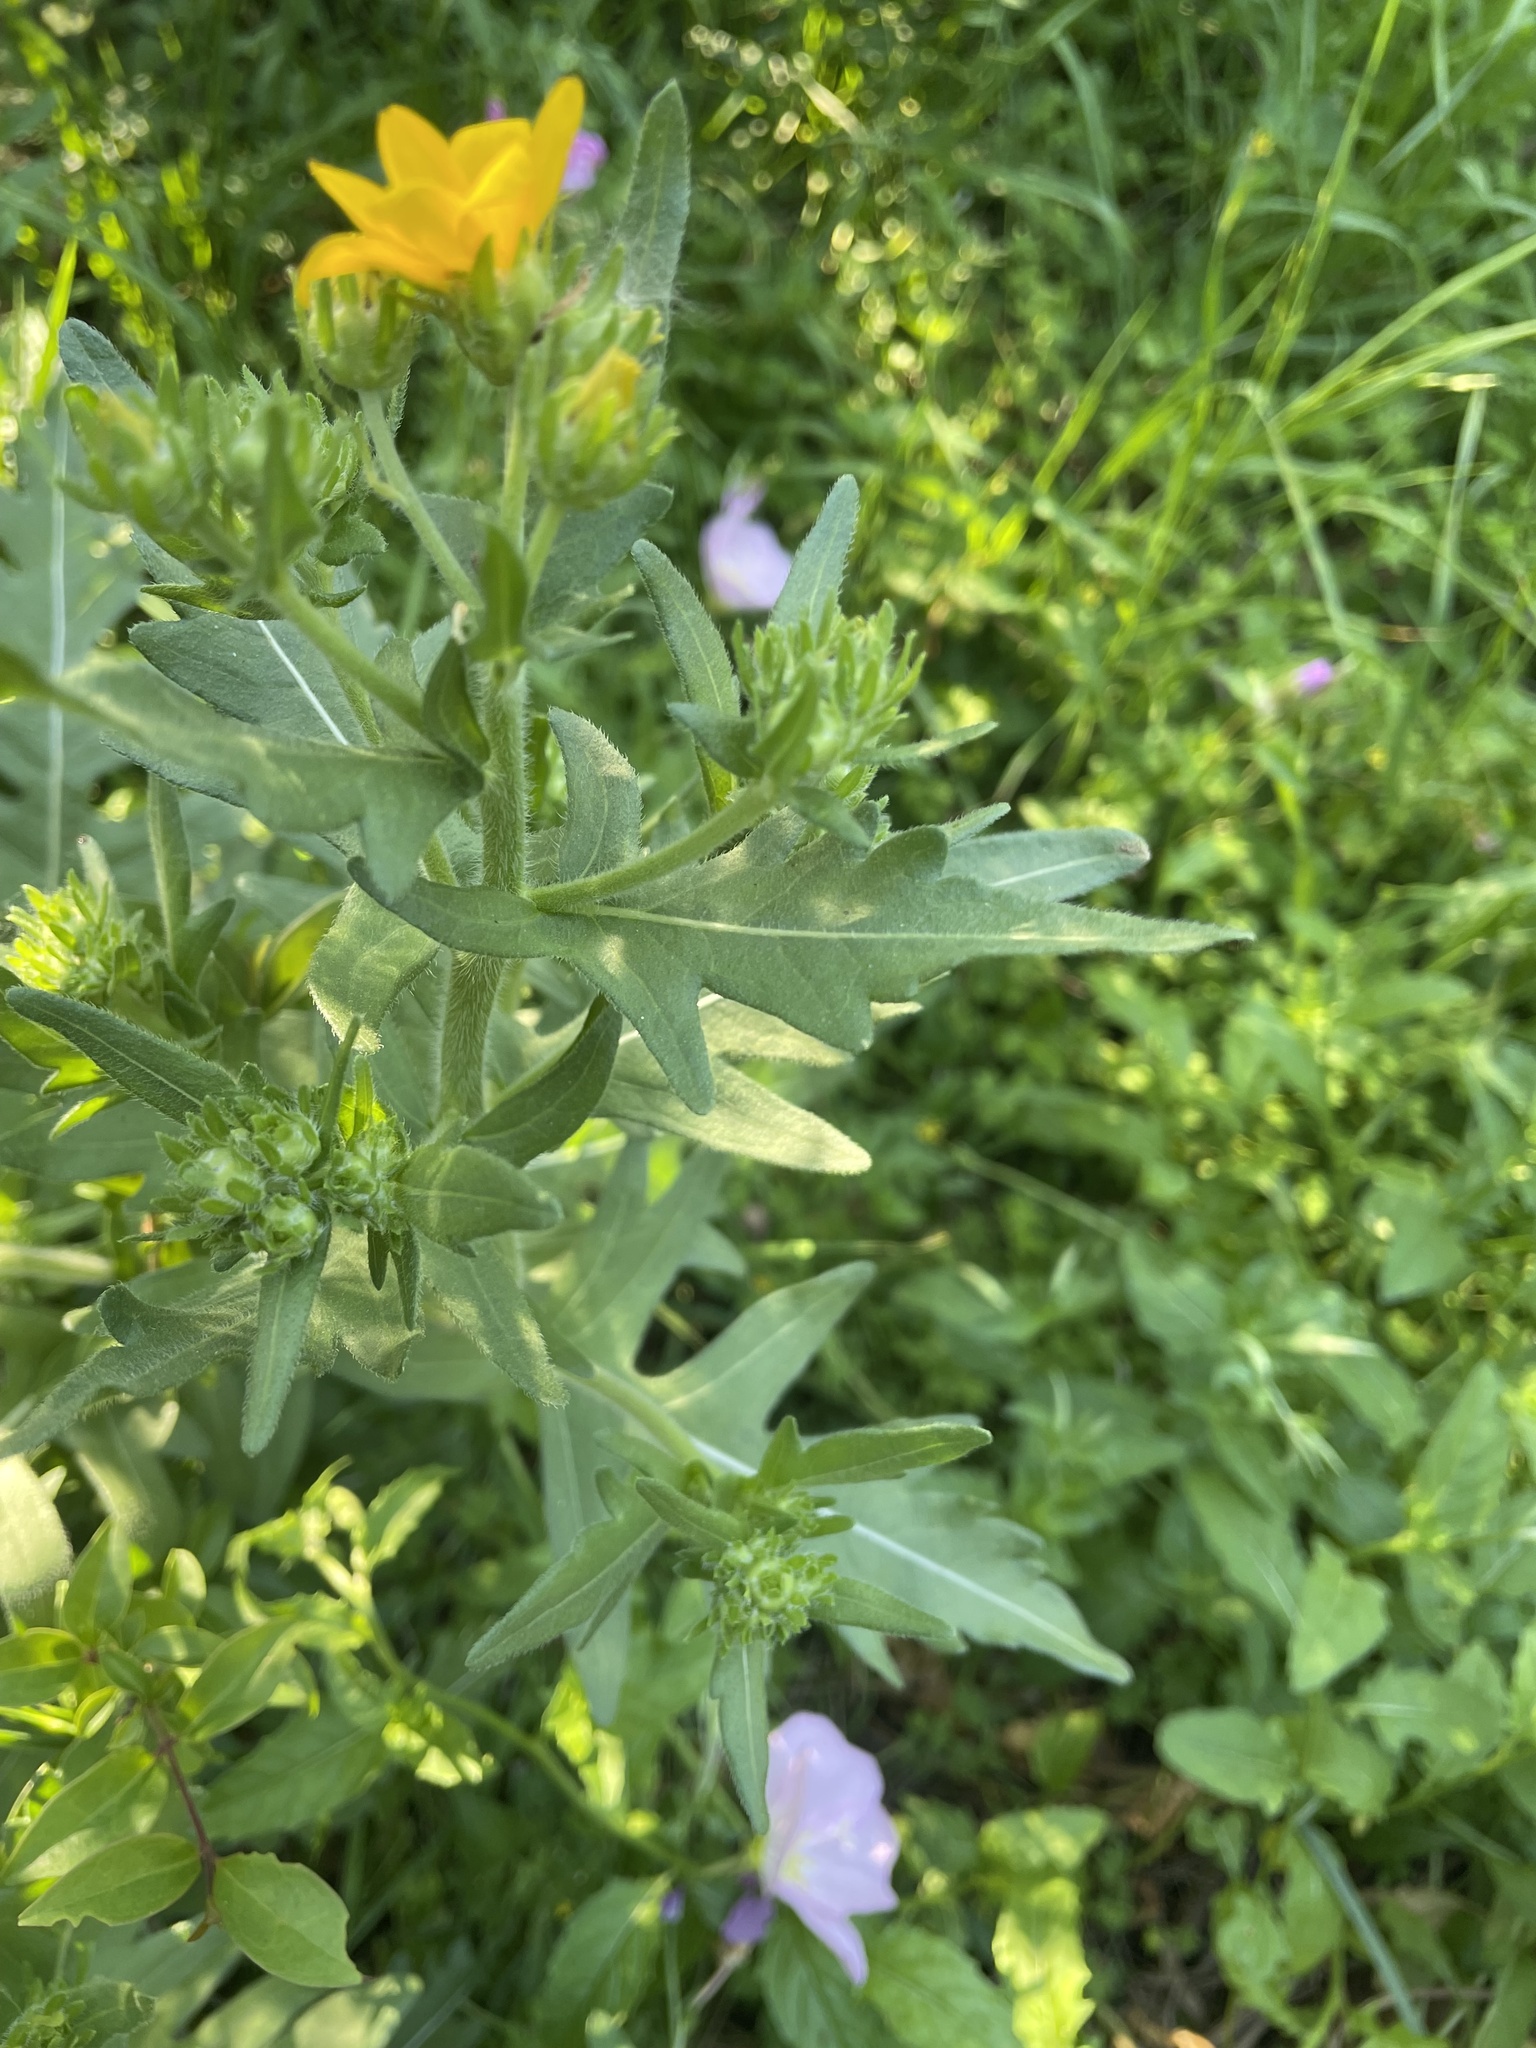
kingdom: Plantae
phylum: Tracheophyta
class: Magnoliopsida
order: Asterales
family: Asteraceae
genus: Engelmannia
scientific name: Engelmannia peristenia
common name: Engelmann's daisy
